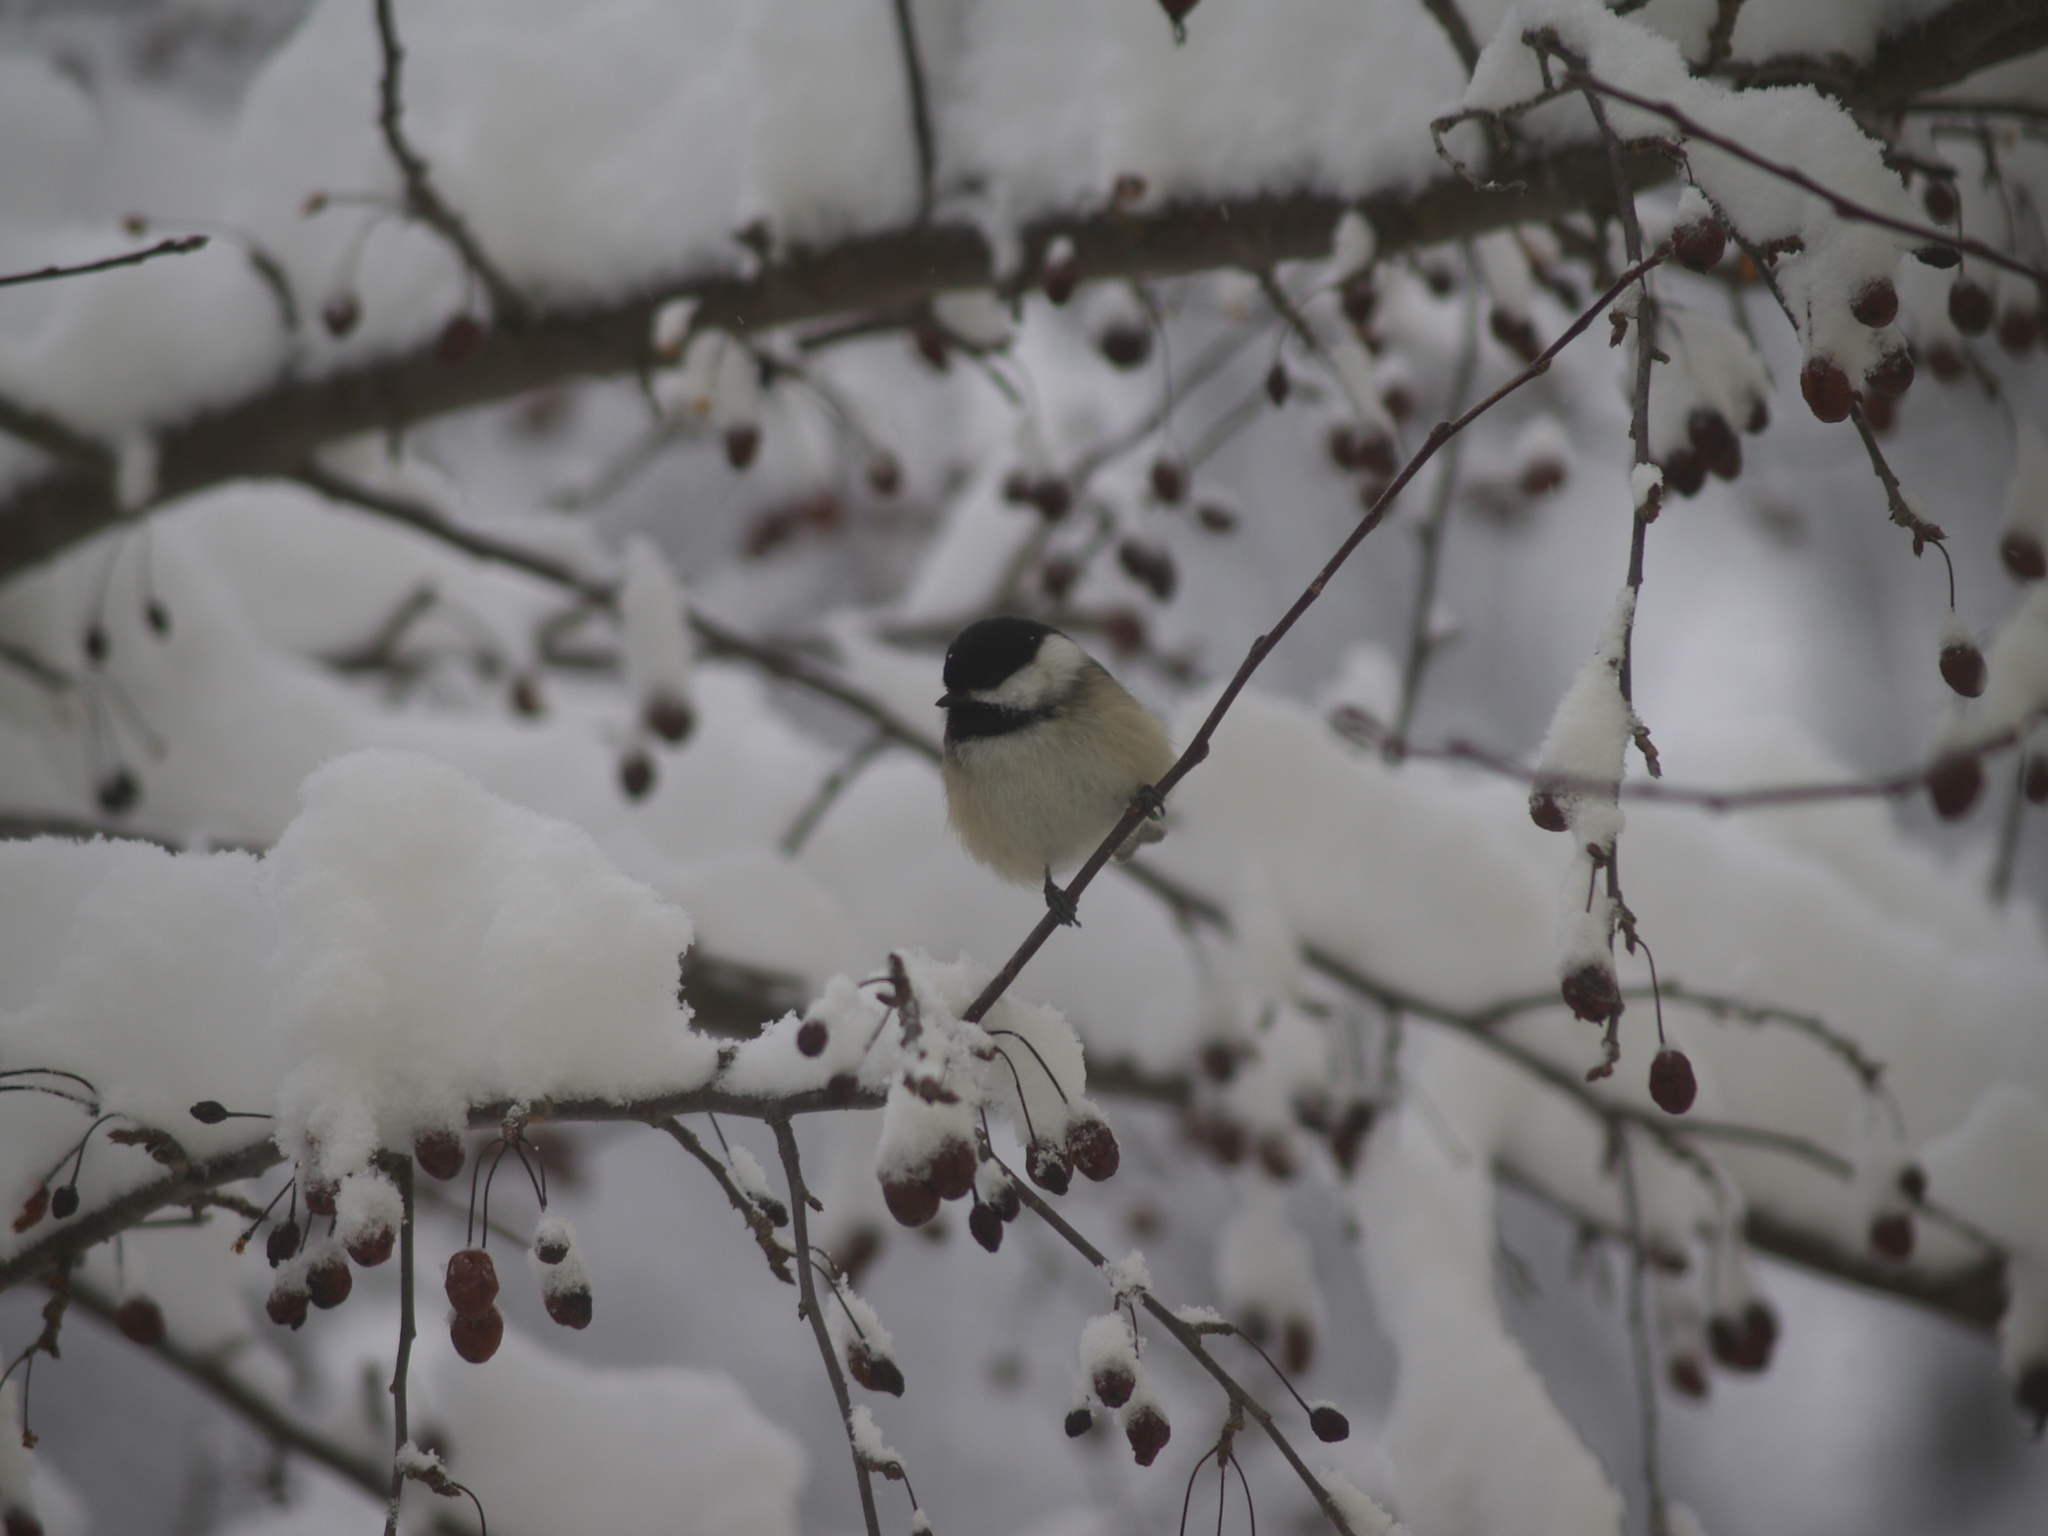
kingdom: Animalia
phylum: Chordata
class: Aves
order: Passeriformes
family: Paridae
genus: Poecile
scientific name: Poecile atricapillus
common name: Black-capped chickadee
